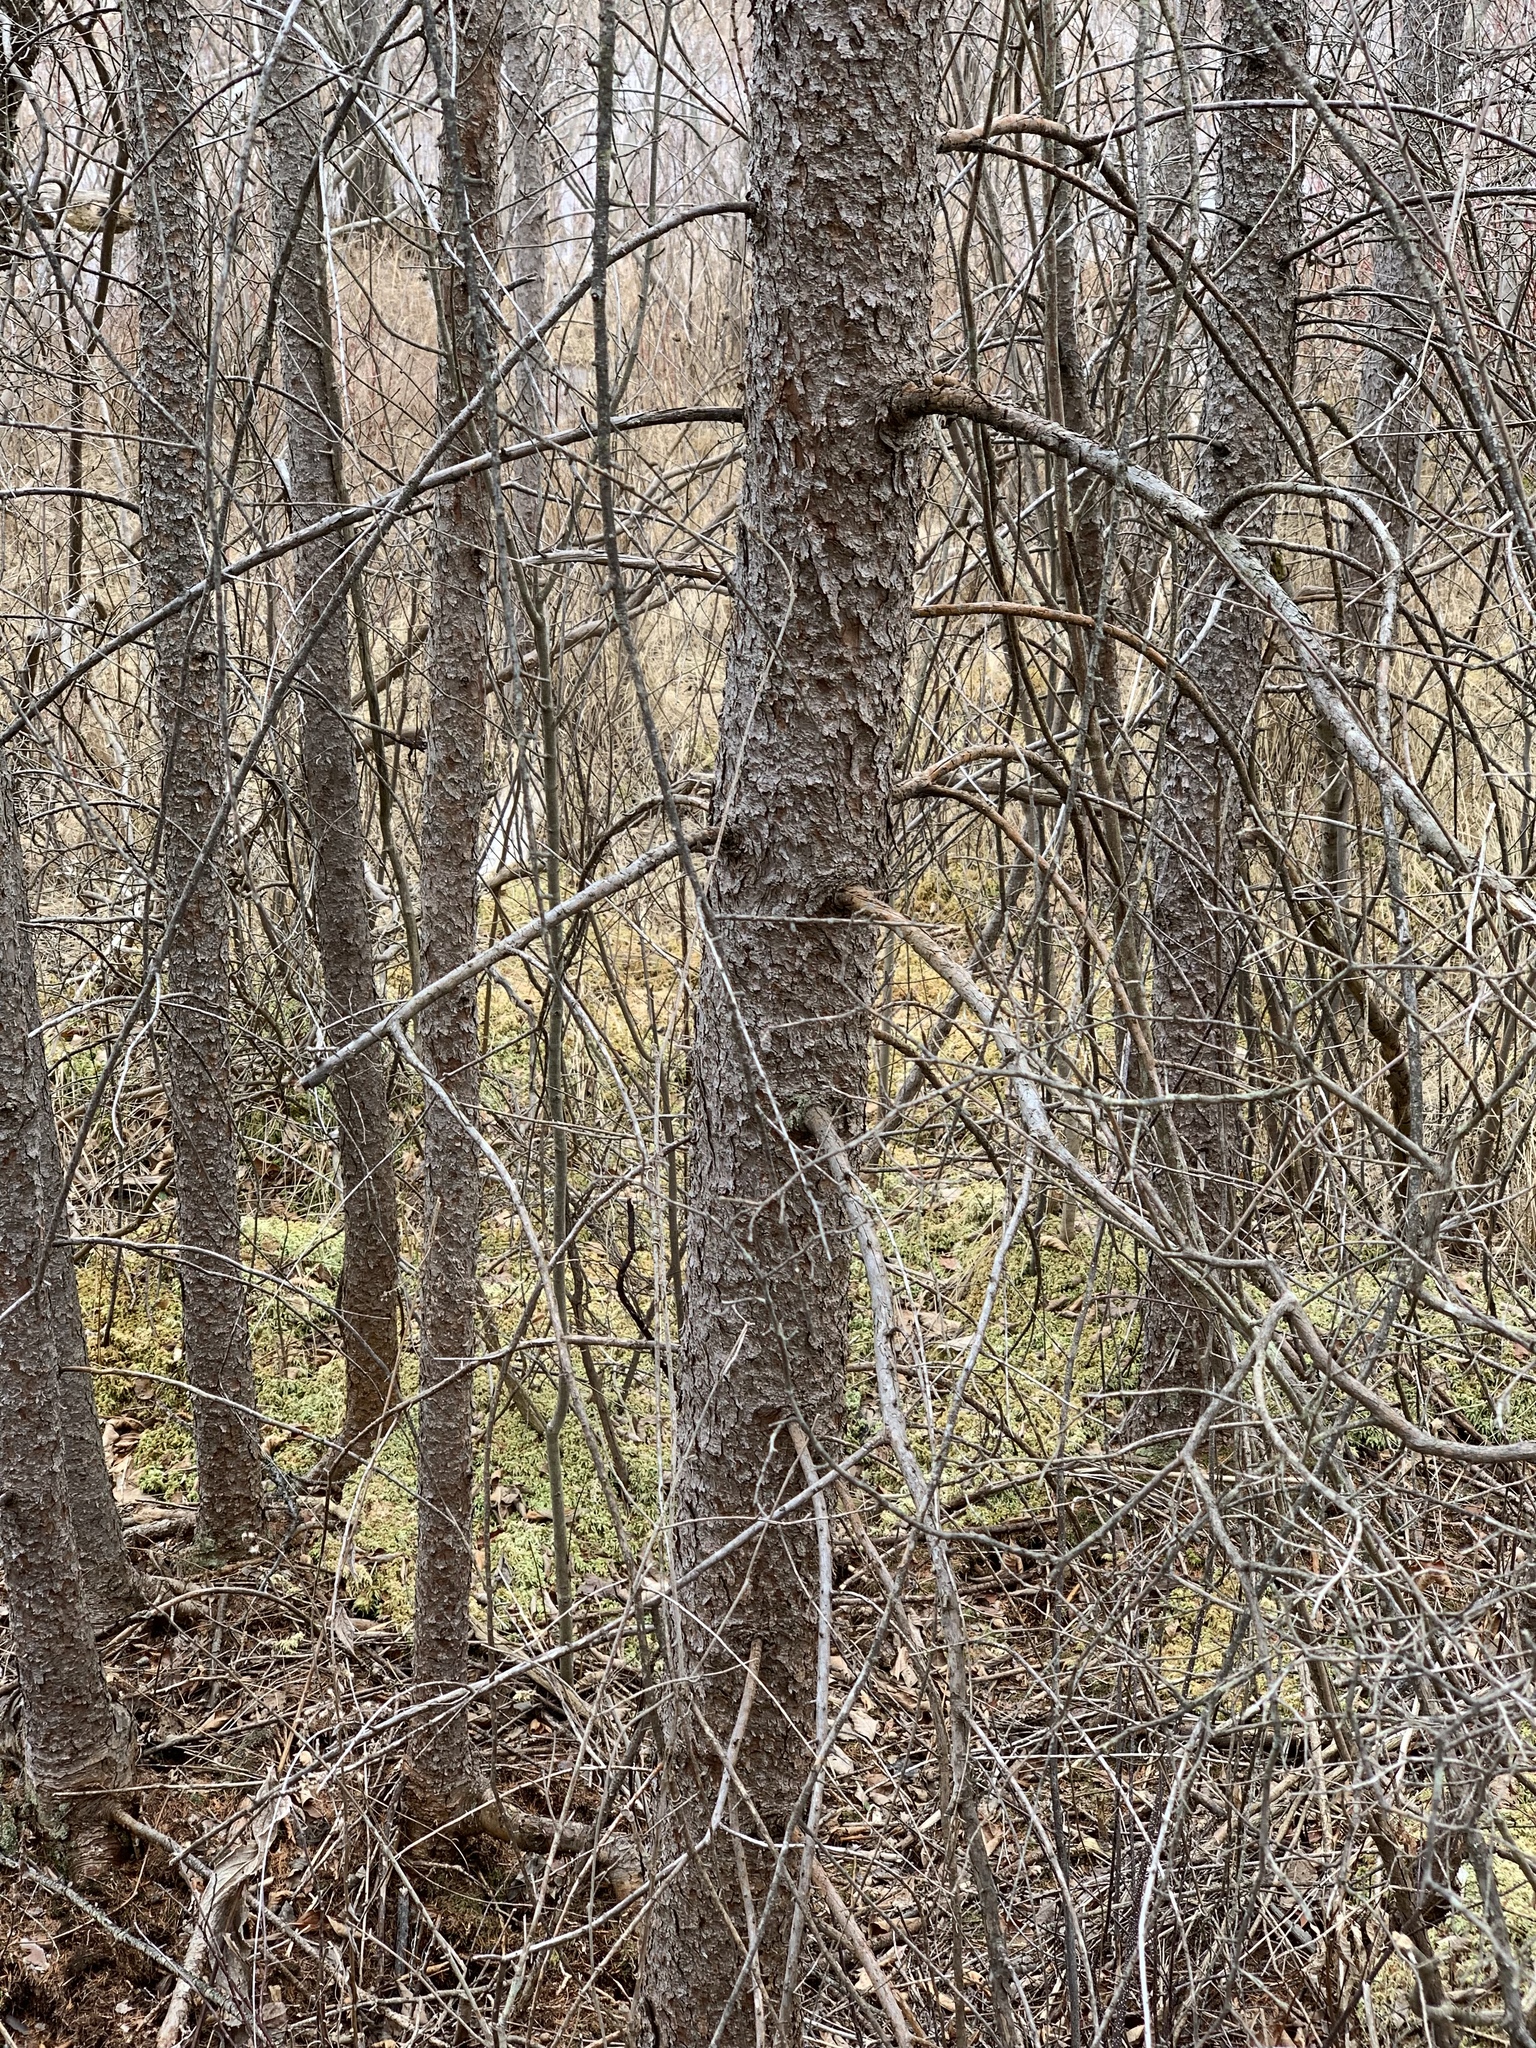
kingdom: Plantae
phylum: Tracheophyta
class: Pinopsida
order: Pinales
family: Pinaceae
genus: Larix
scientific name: Larix laricina
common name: American larch
